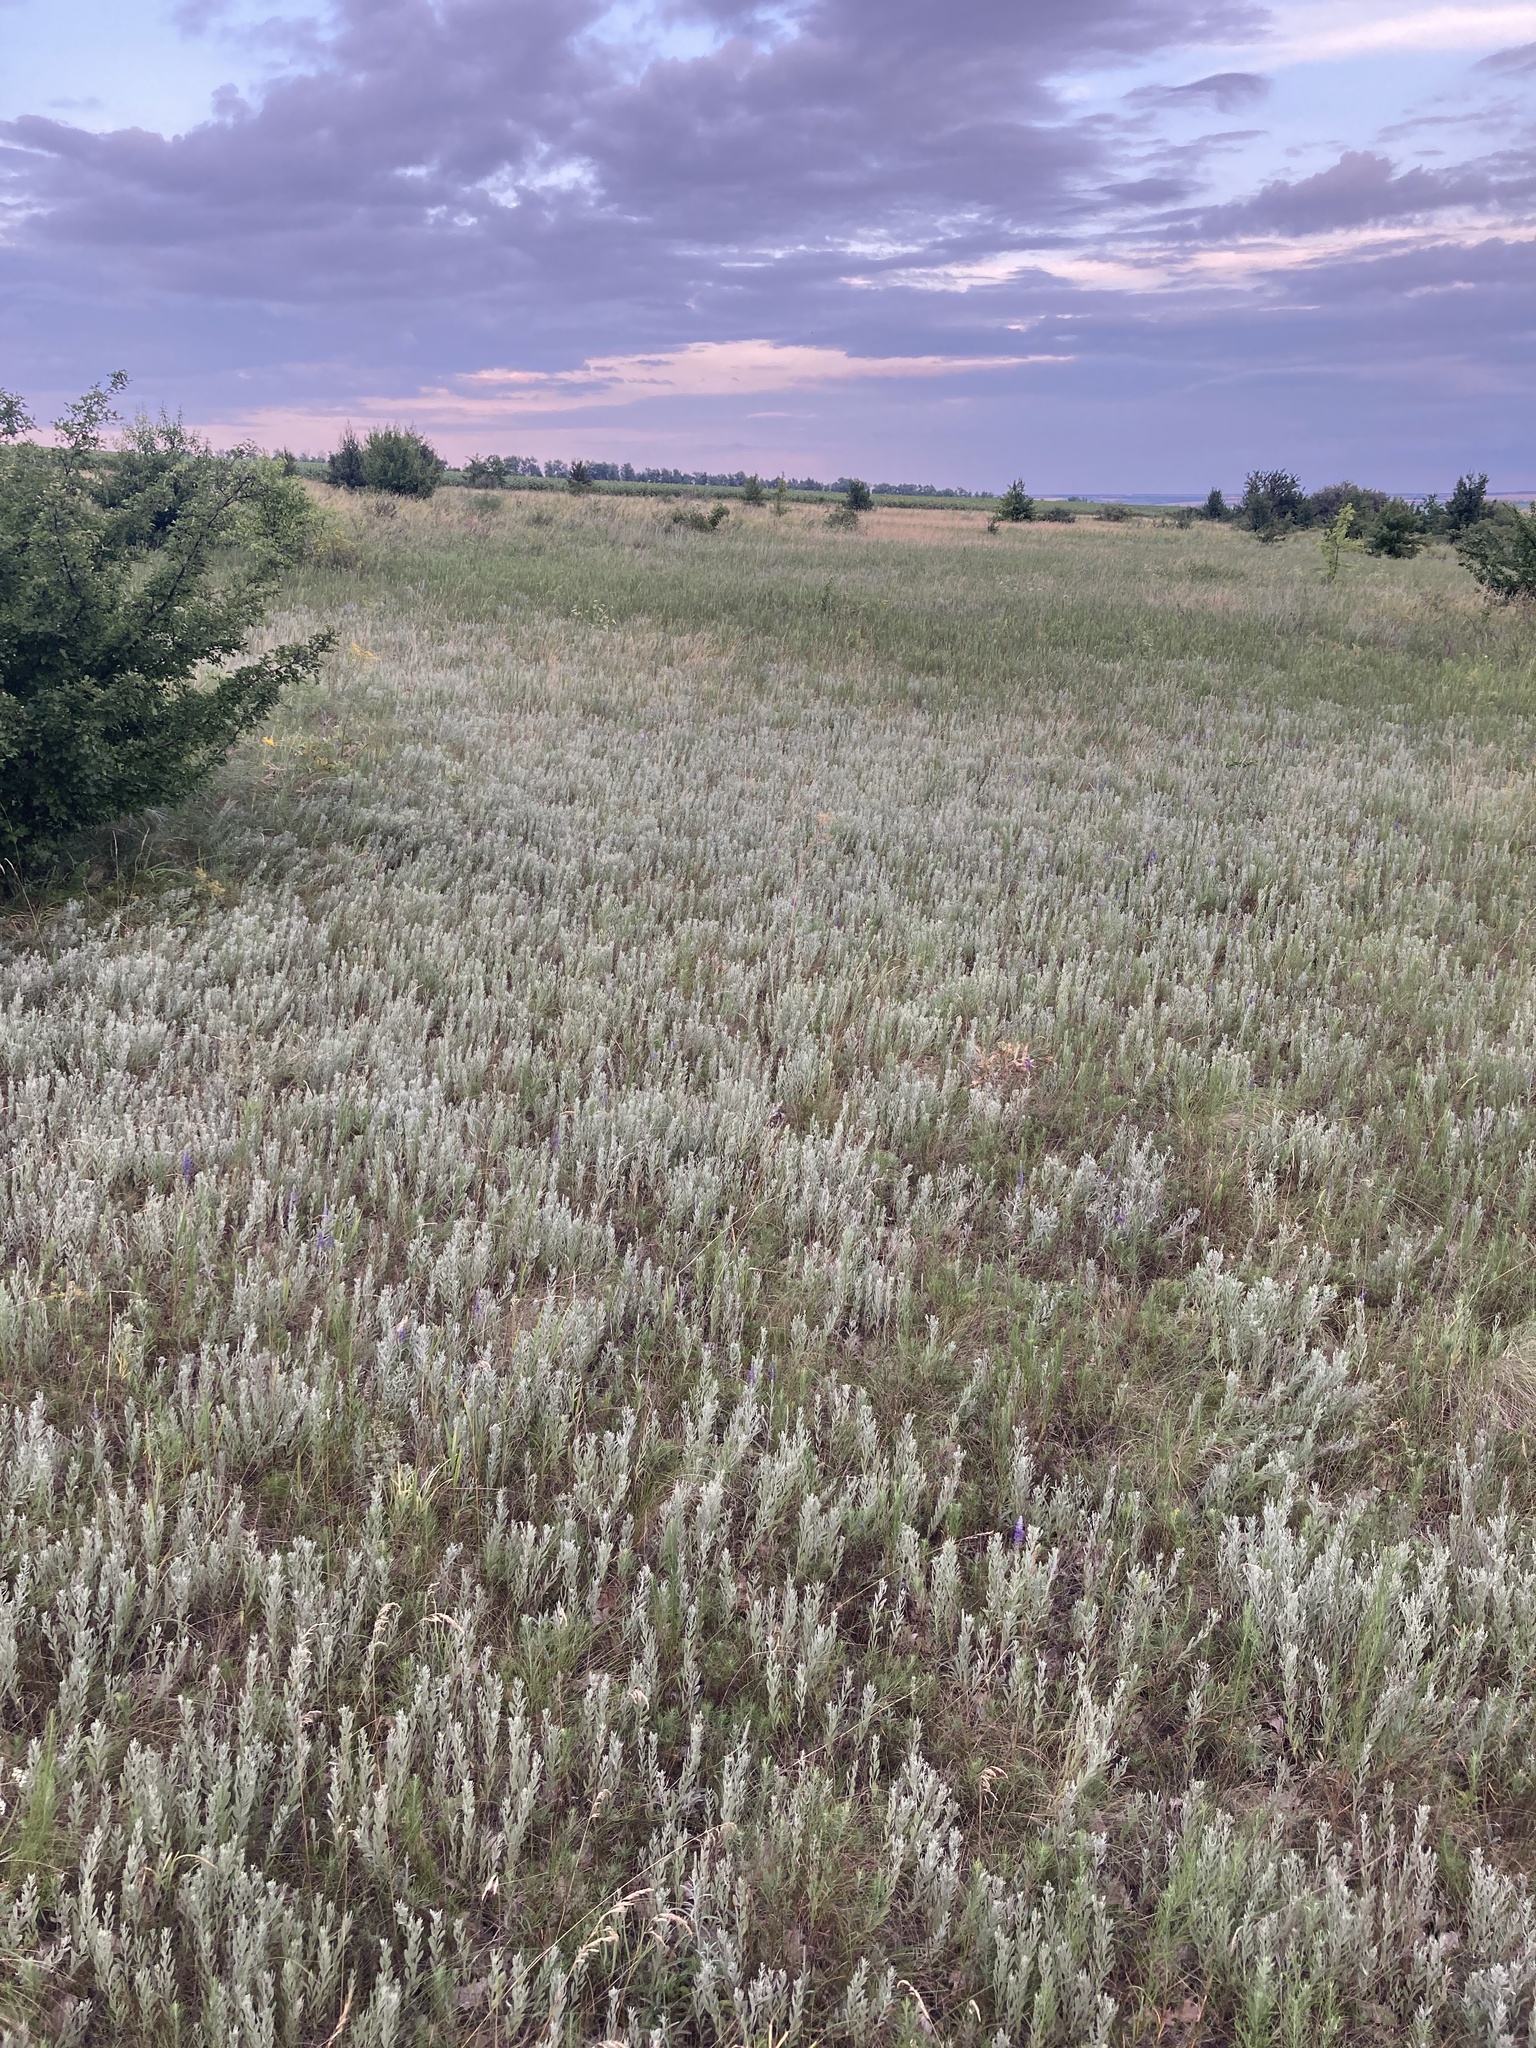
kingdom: Plantae
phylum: Tracheophyta
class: Magnoliopsida
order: Asterales
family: Asteraceae
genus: Galatella
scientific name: Galatella villosa
